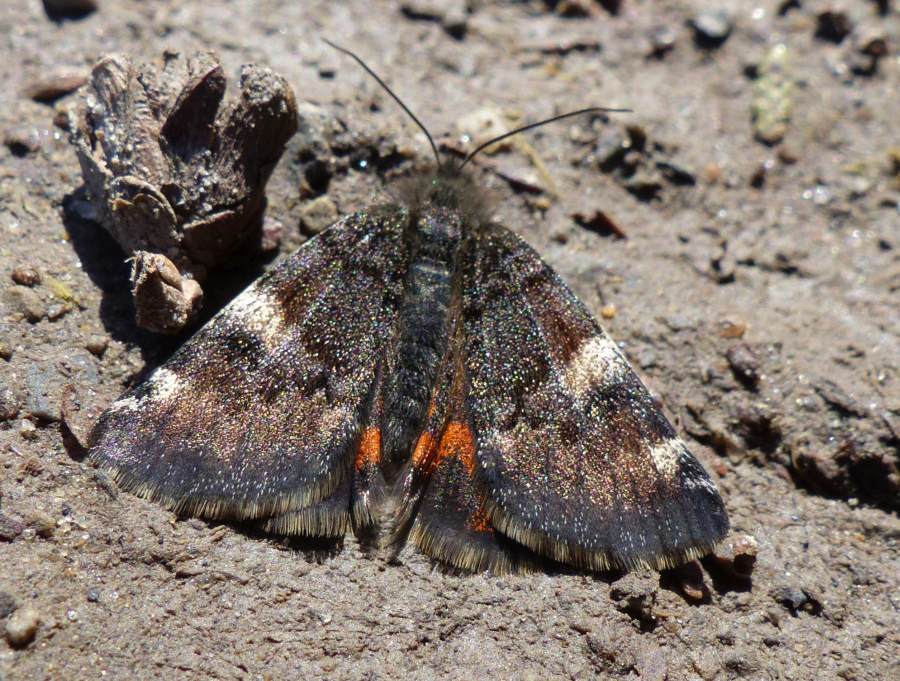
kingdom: Animalia
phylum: Arthropoda
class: Insecta
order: Lepidoptera
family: Geometridae
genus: Archiearis
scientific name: Archiearis infans
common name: First born geometer
